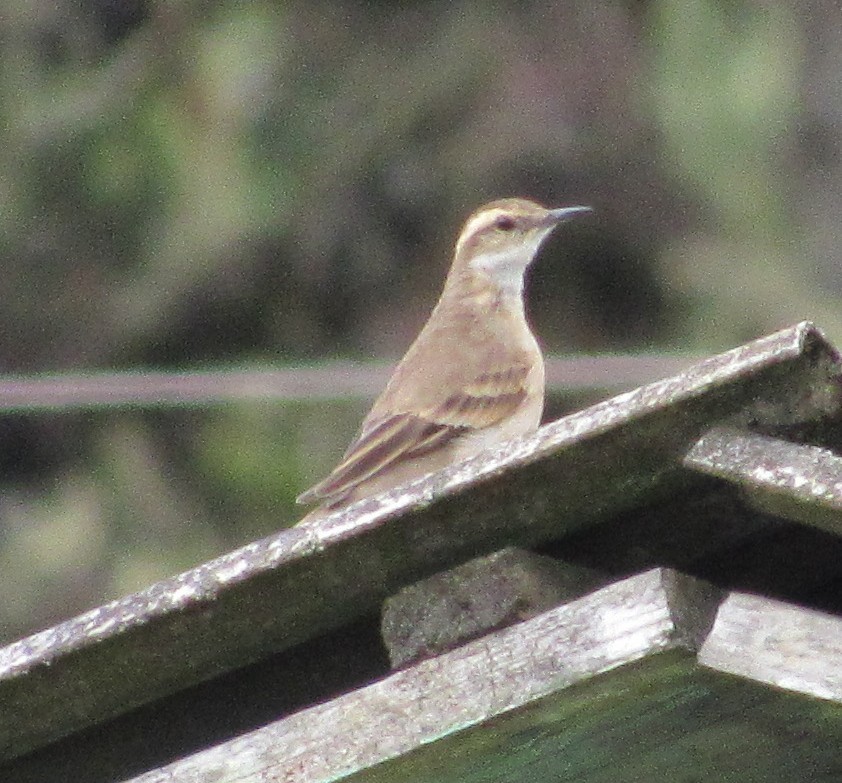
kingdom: Animalia
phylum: Chordata
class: Aves
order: Passeriformes
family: Furnariidae
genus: Cinclodes
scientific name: Cinclodes pabsti
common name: Long-tailed cinclodes
